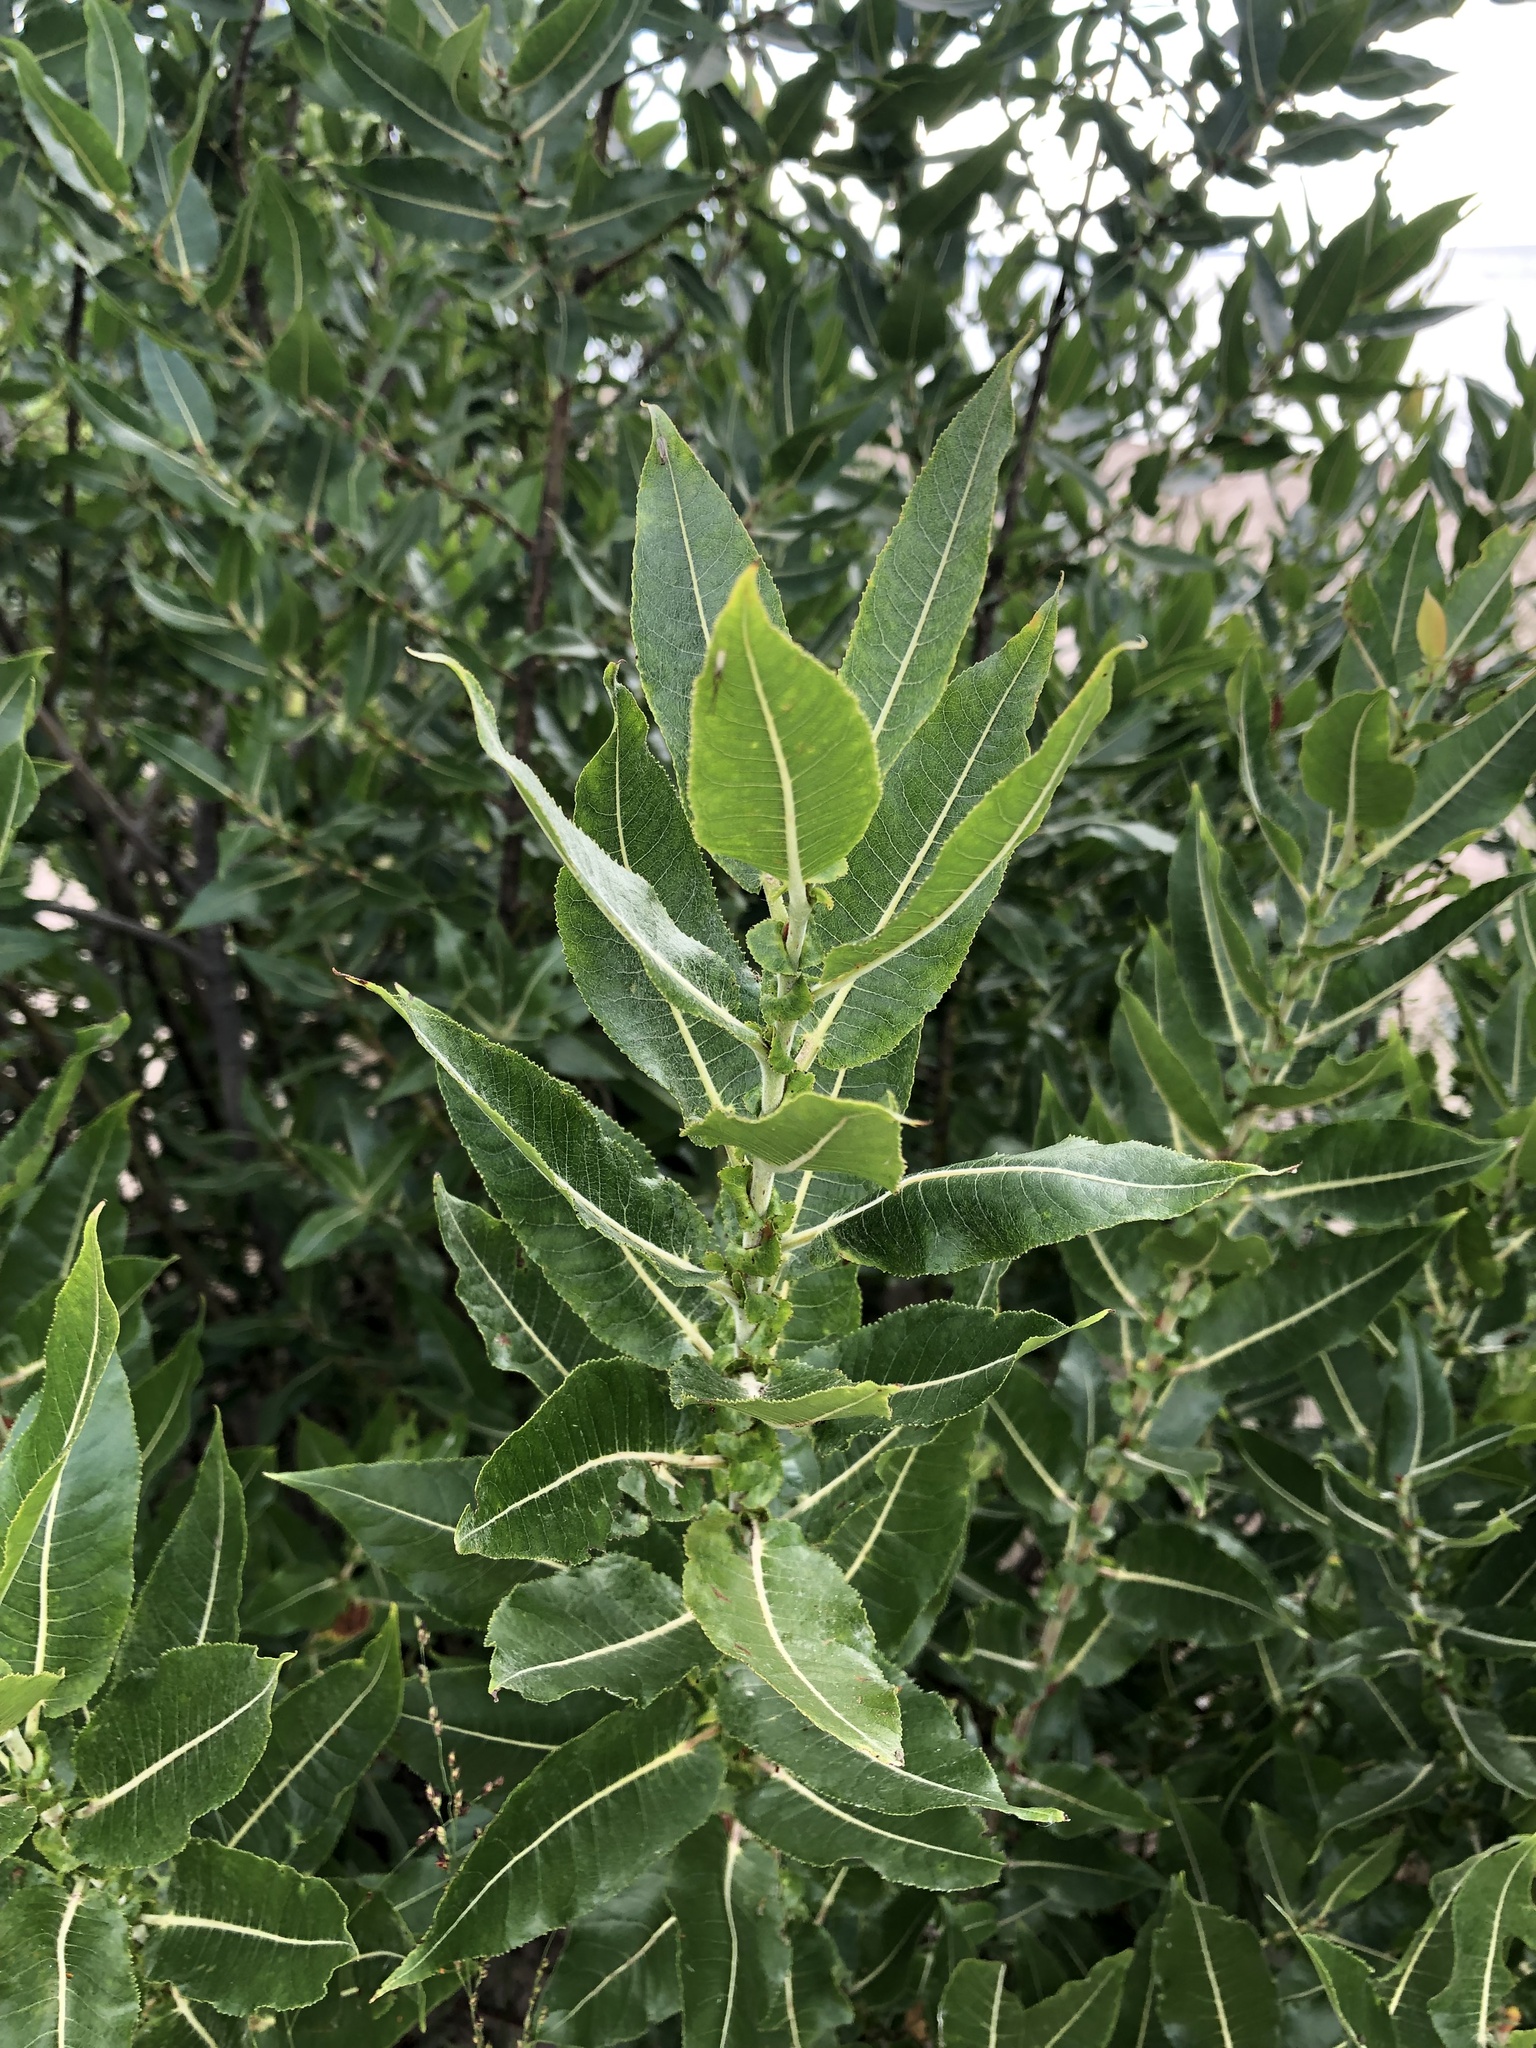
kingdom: Plantae
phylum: Tracheophyta
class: Magnoliopsida
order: Malpighiales
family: Salicaceae
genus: Salix
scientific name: Salix cordata
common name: Heart-leaf willow
